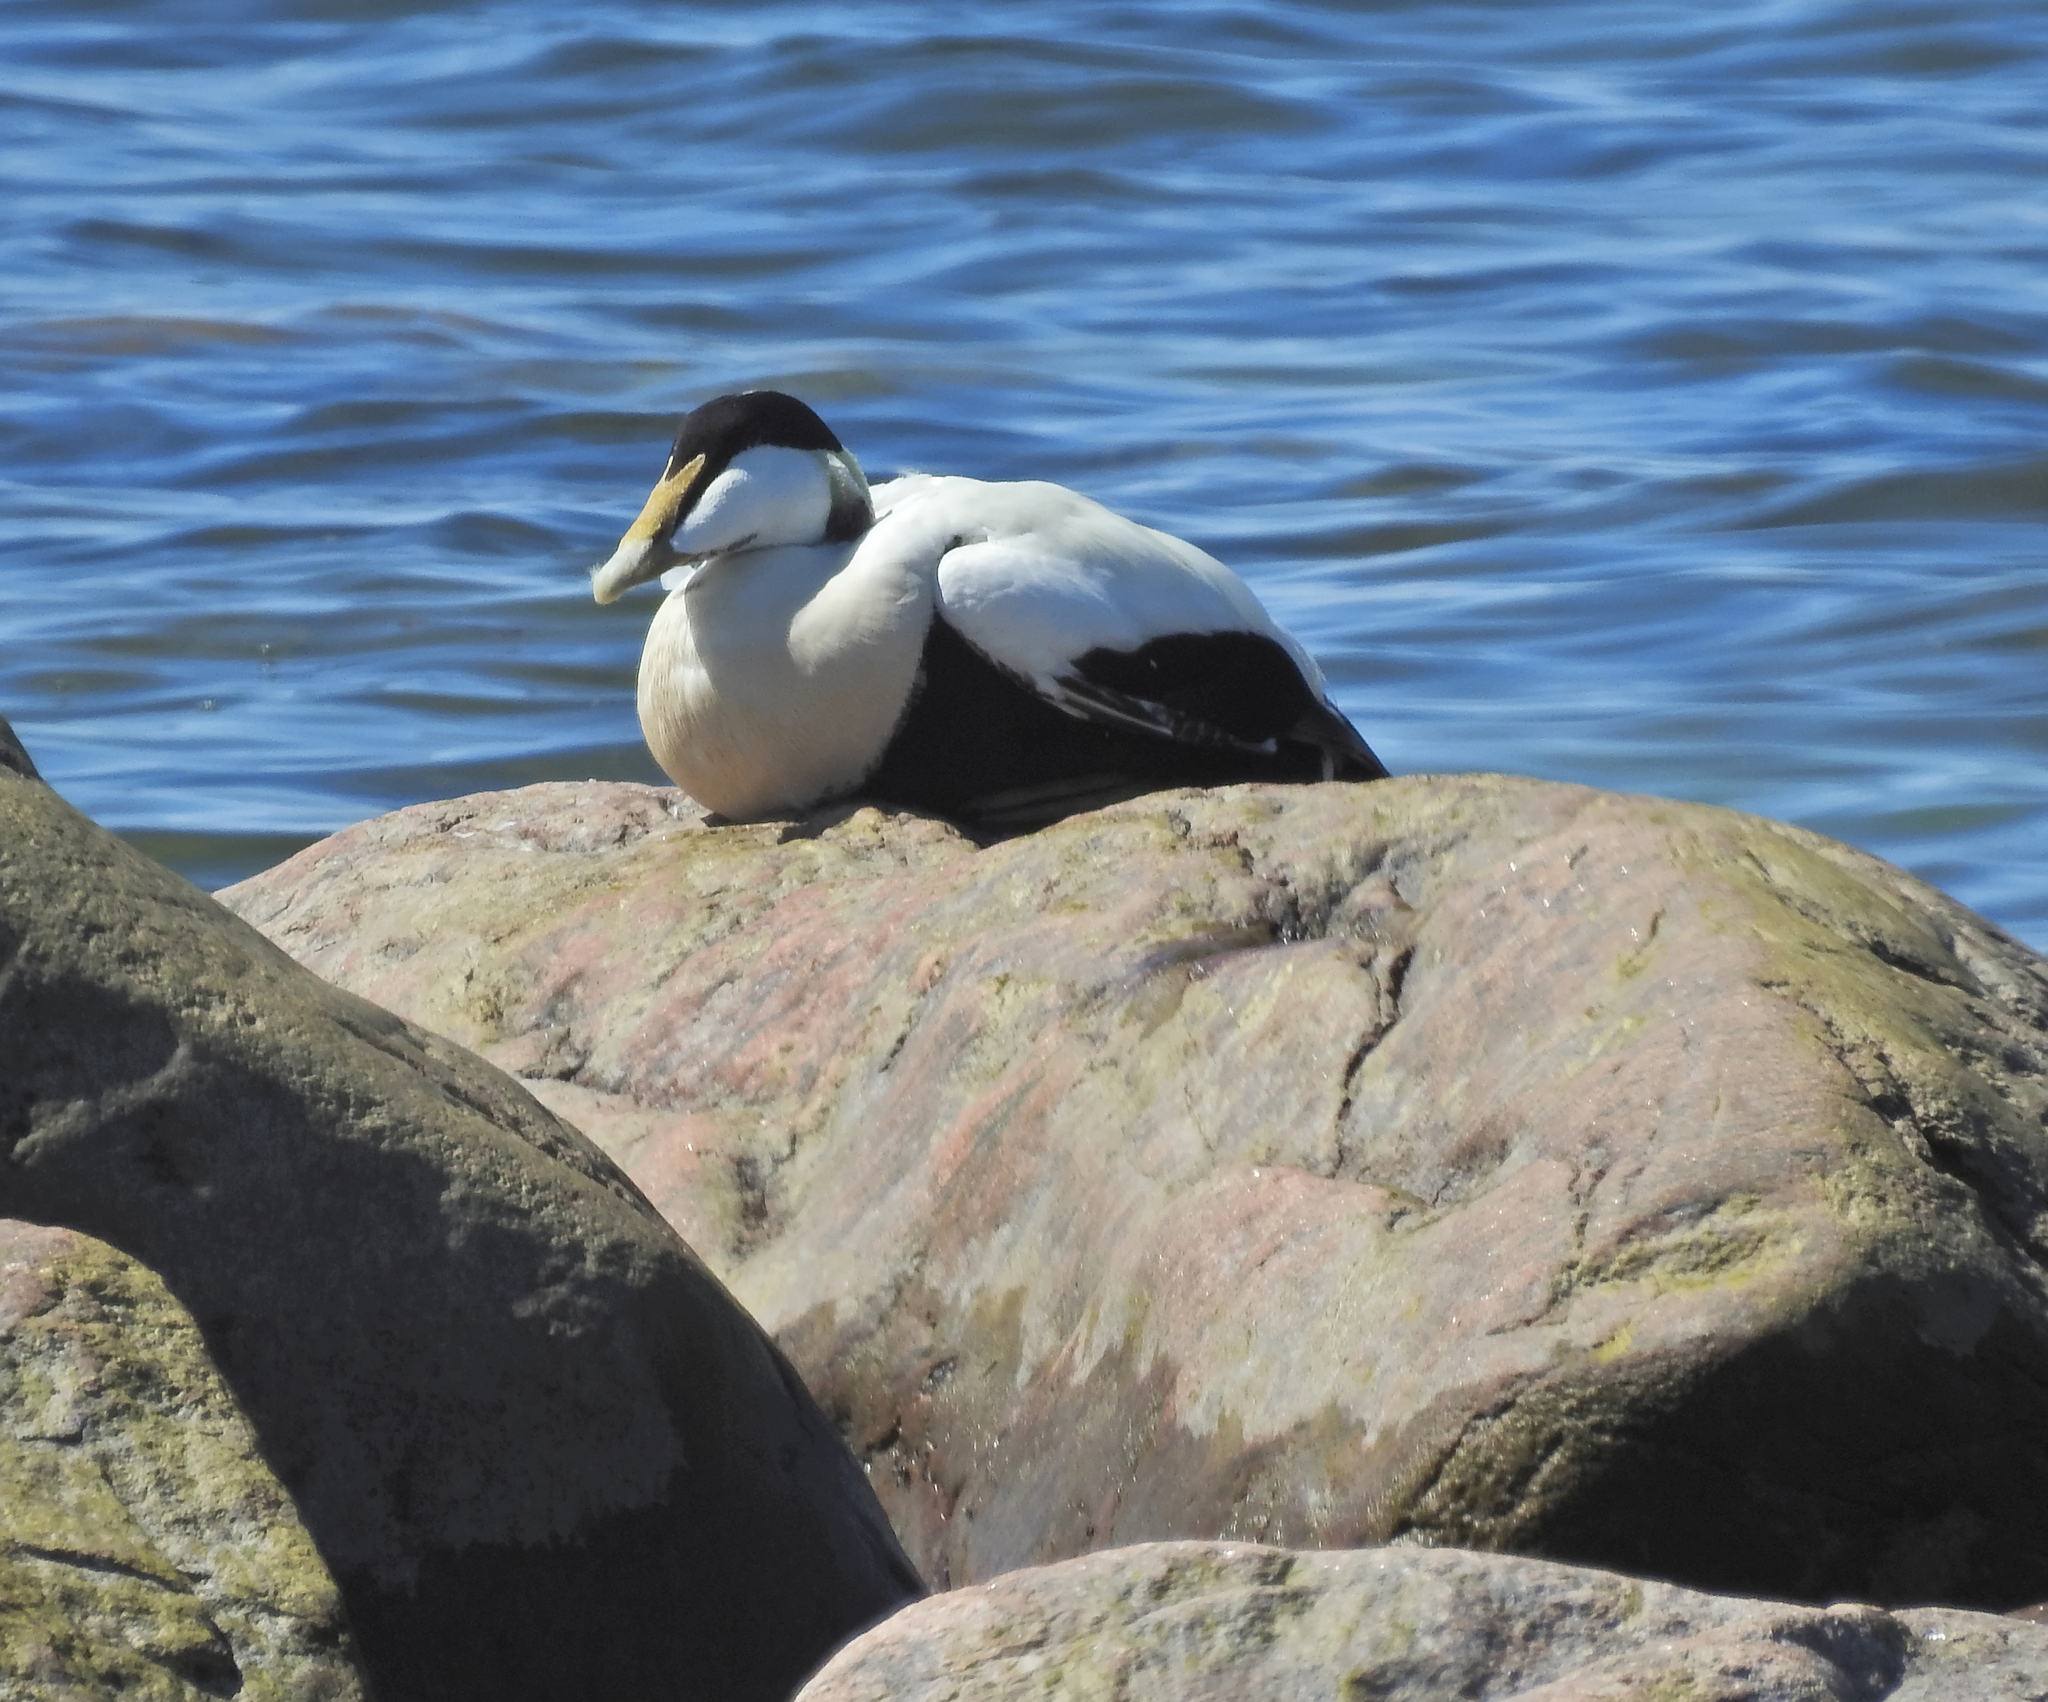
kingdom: Animalia
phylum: Chordata
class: Aves
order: Anseriformes
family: Anatidae
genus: Somateria
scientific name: Somateria mollissima
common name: Common eider
